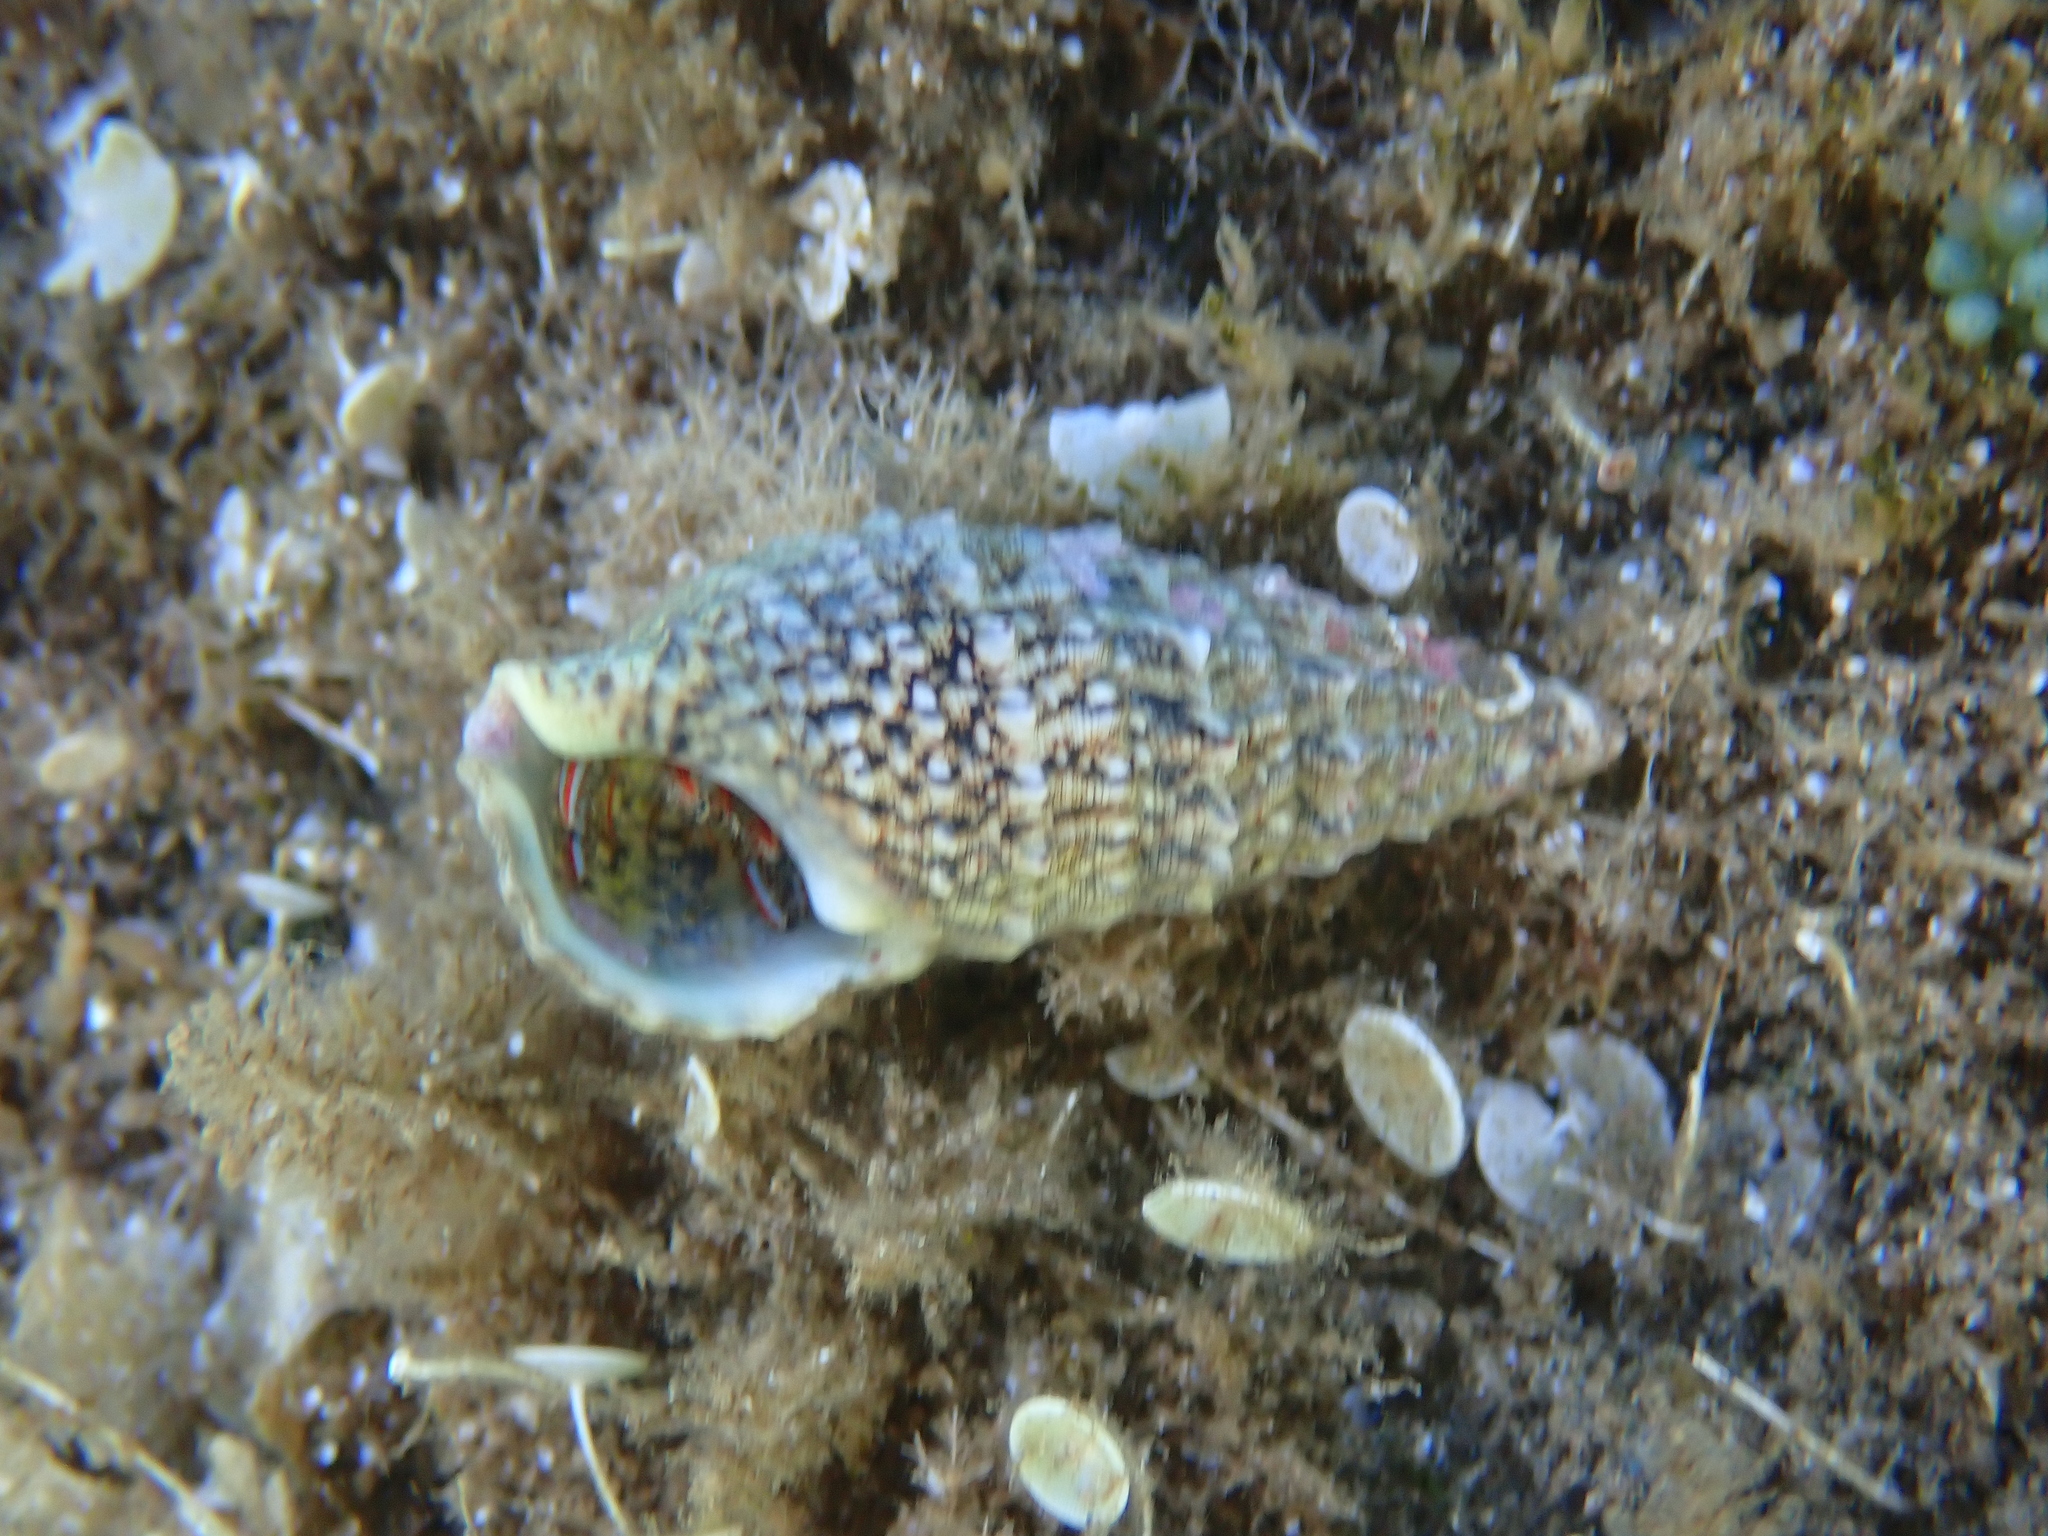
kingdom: Animalia
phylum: Mollusca
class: Gastropoda
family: Cerithiidae
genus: Cerithium
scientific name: Cerithium vulgatum
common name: European cerith
